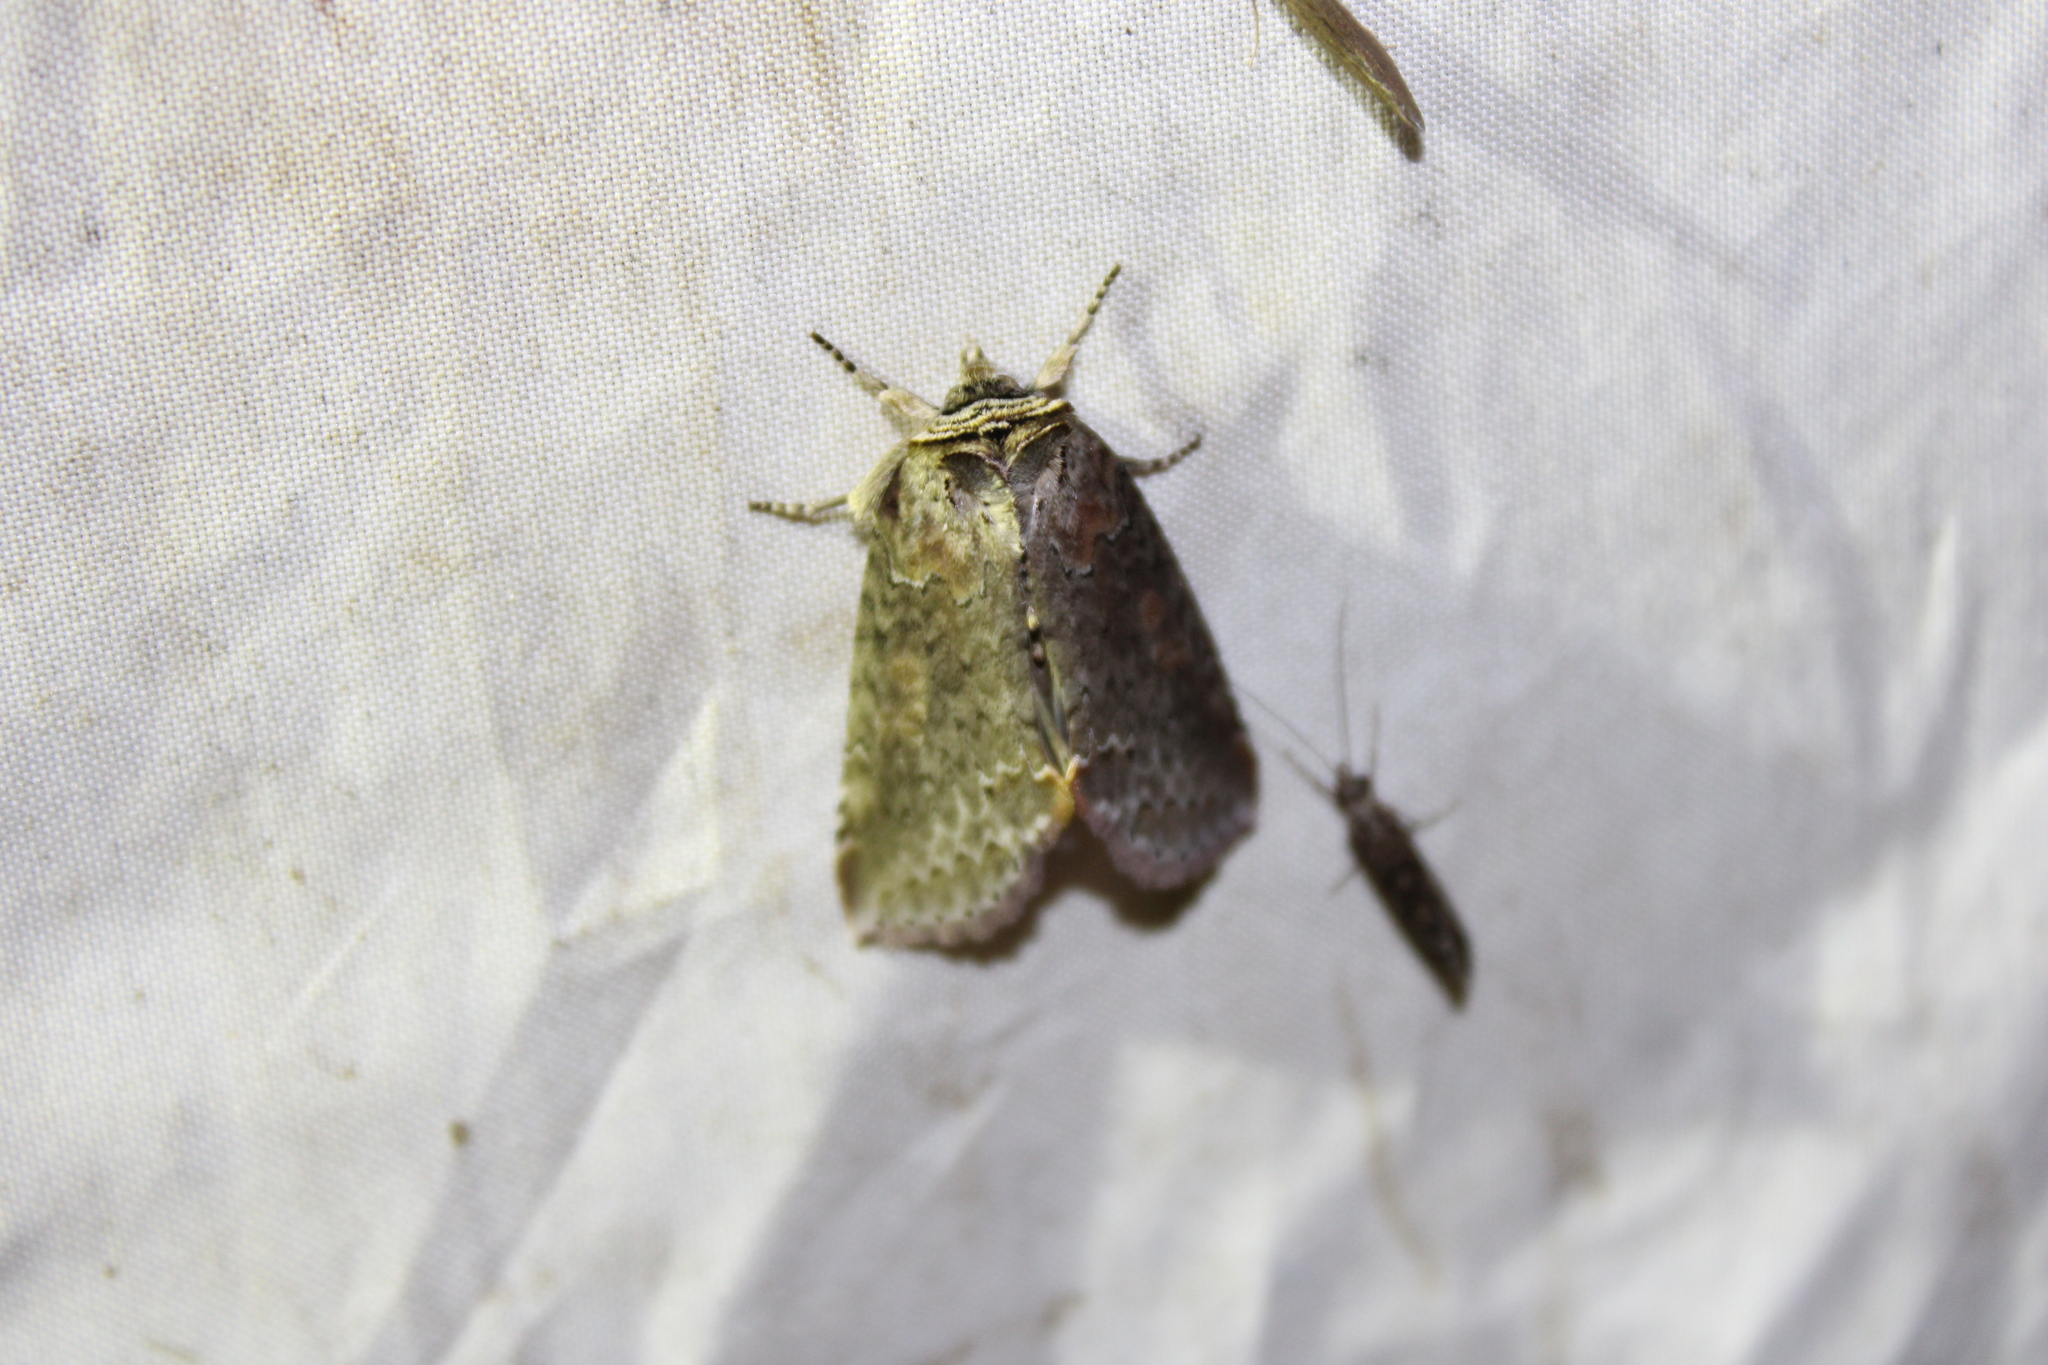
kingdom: Animalia
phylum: Arthropoda
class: Insecta
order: Lepidoptera
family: Drepanidae
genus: Pseudothyatira
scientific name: Pseudothyatira cymatophoroides
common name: Tufted thyatirid moth
